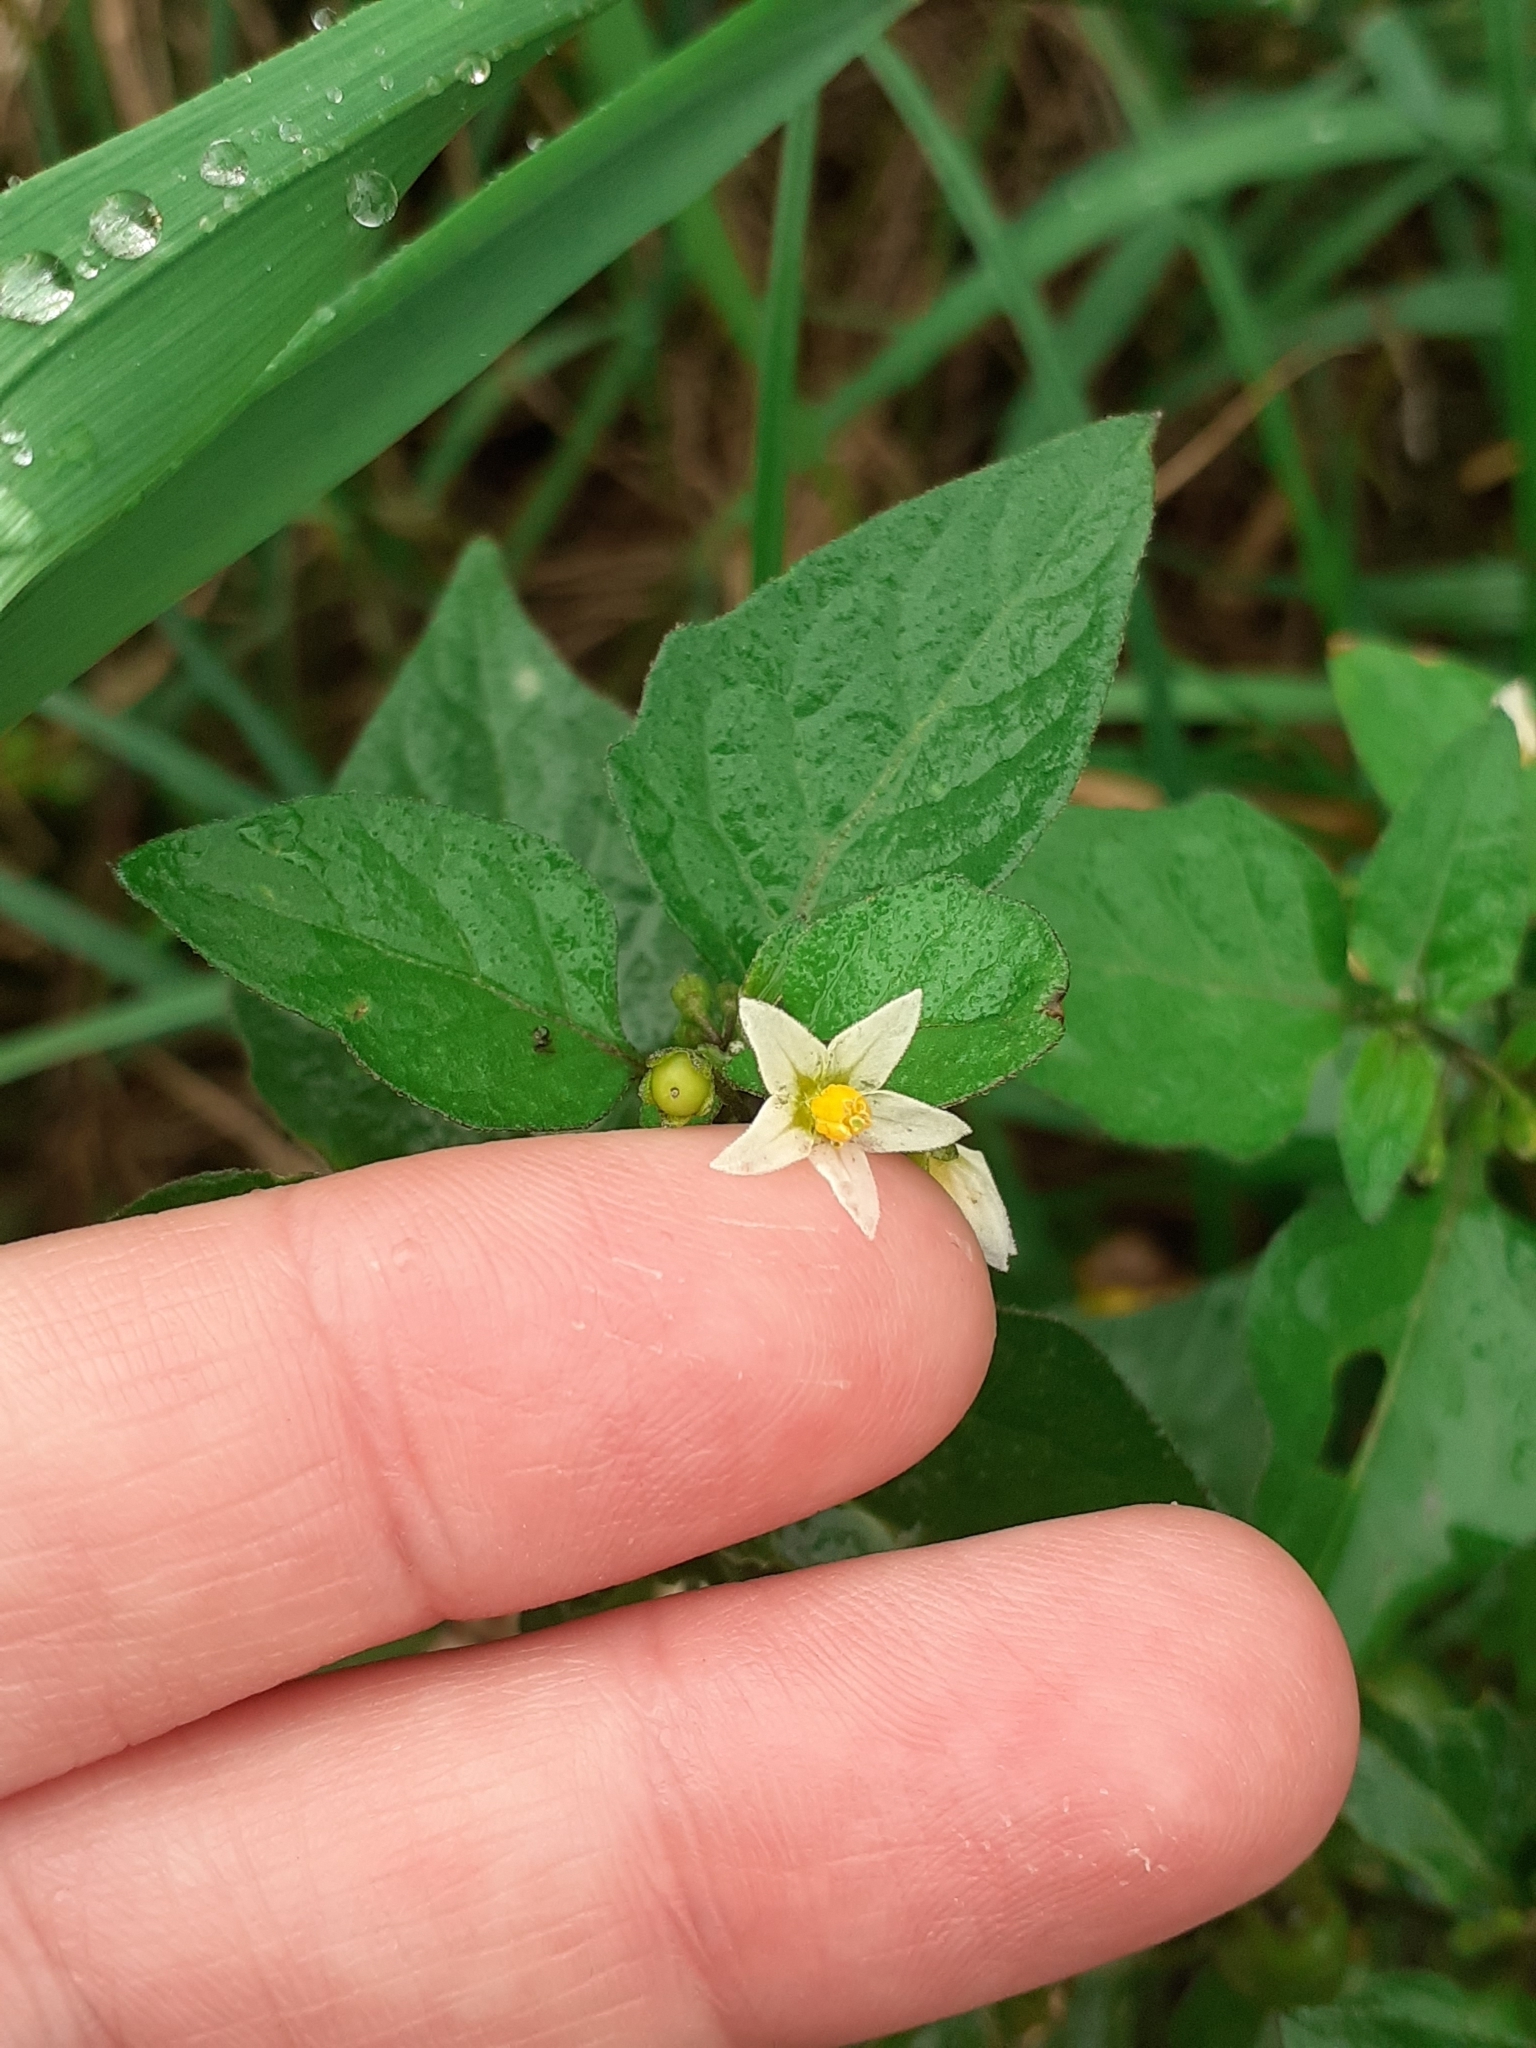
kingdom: Plantae
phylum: Tracheophyta
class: Magnoliopsida
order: Solanales
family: Solanaceae
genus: Solanum
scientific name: Solanum nigrum
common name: Black nightshade
